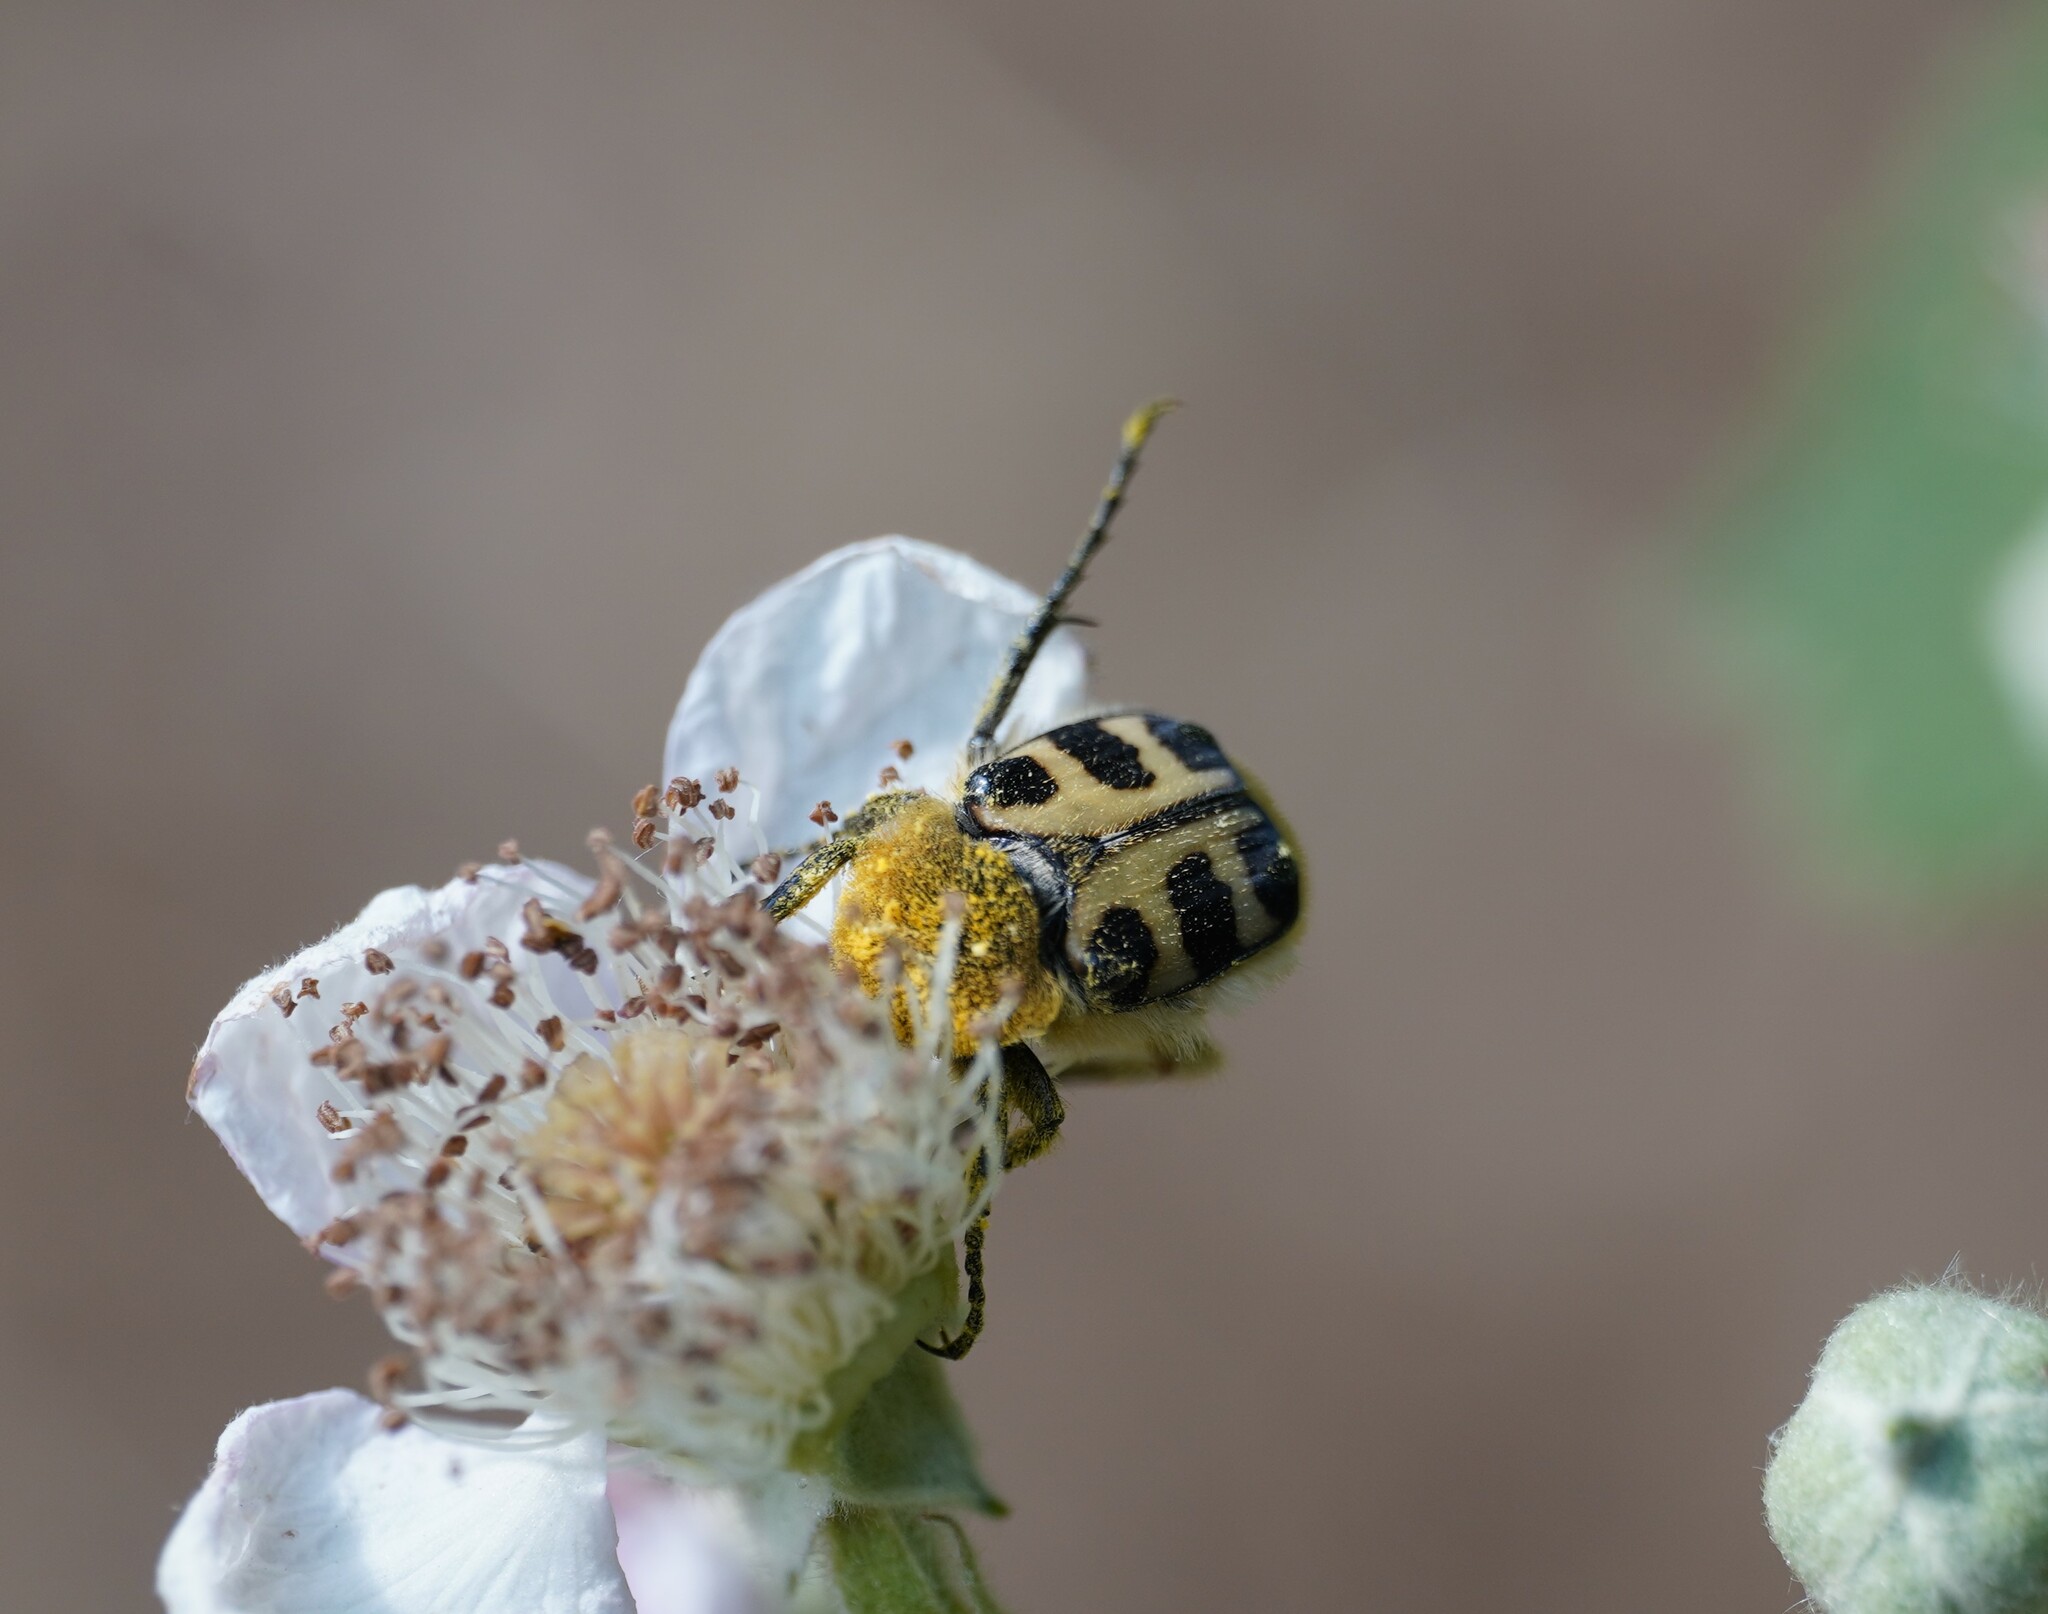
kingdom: Animalia
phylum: Arthropoda
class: Insecta
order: Coleoptera
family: Scarabaeidae
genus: Trichius
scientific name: Trichius gallicus
